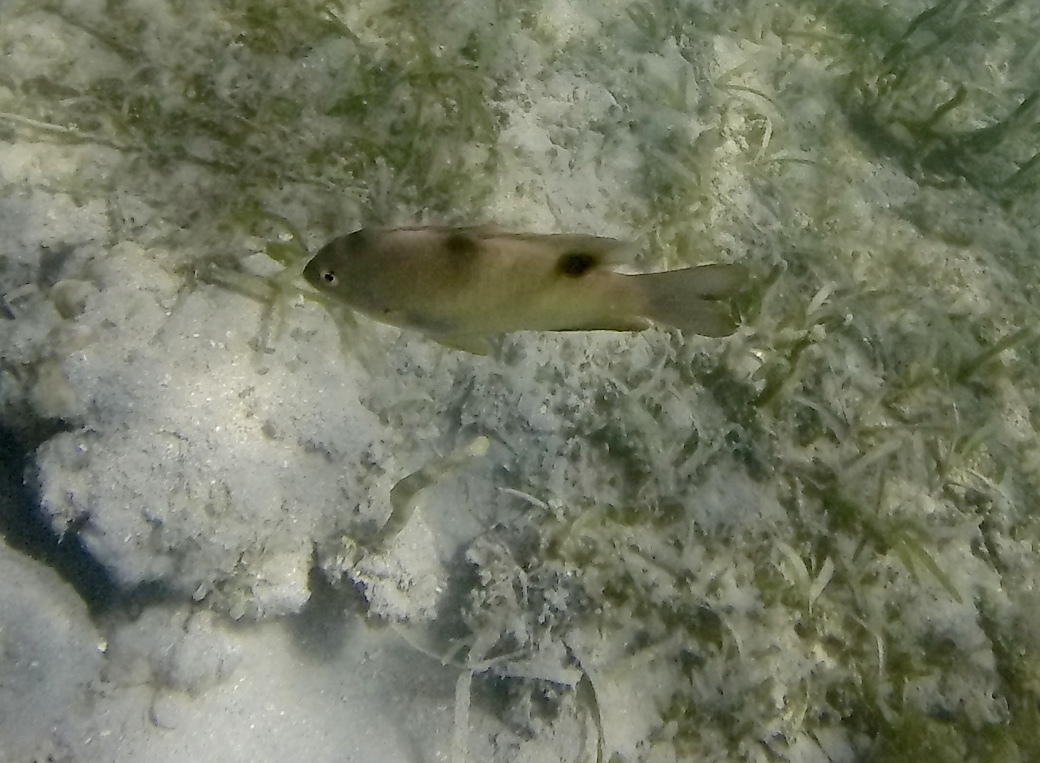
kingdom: Animalia
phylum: Chordata
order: Perciformes
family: Pomacentridae
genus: Dischistodus
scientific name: Dischistodus perspicillatus
